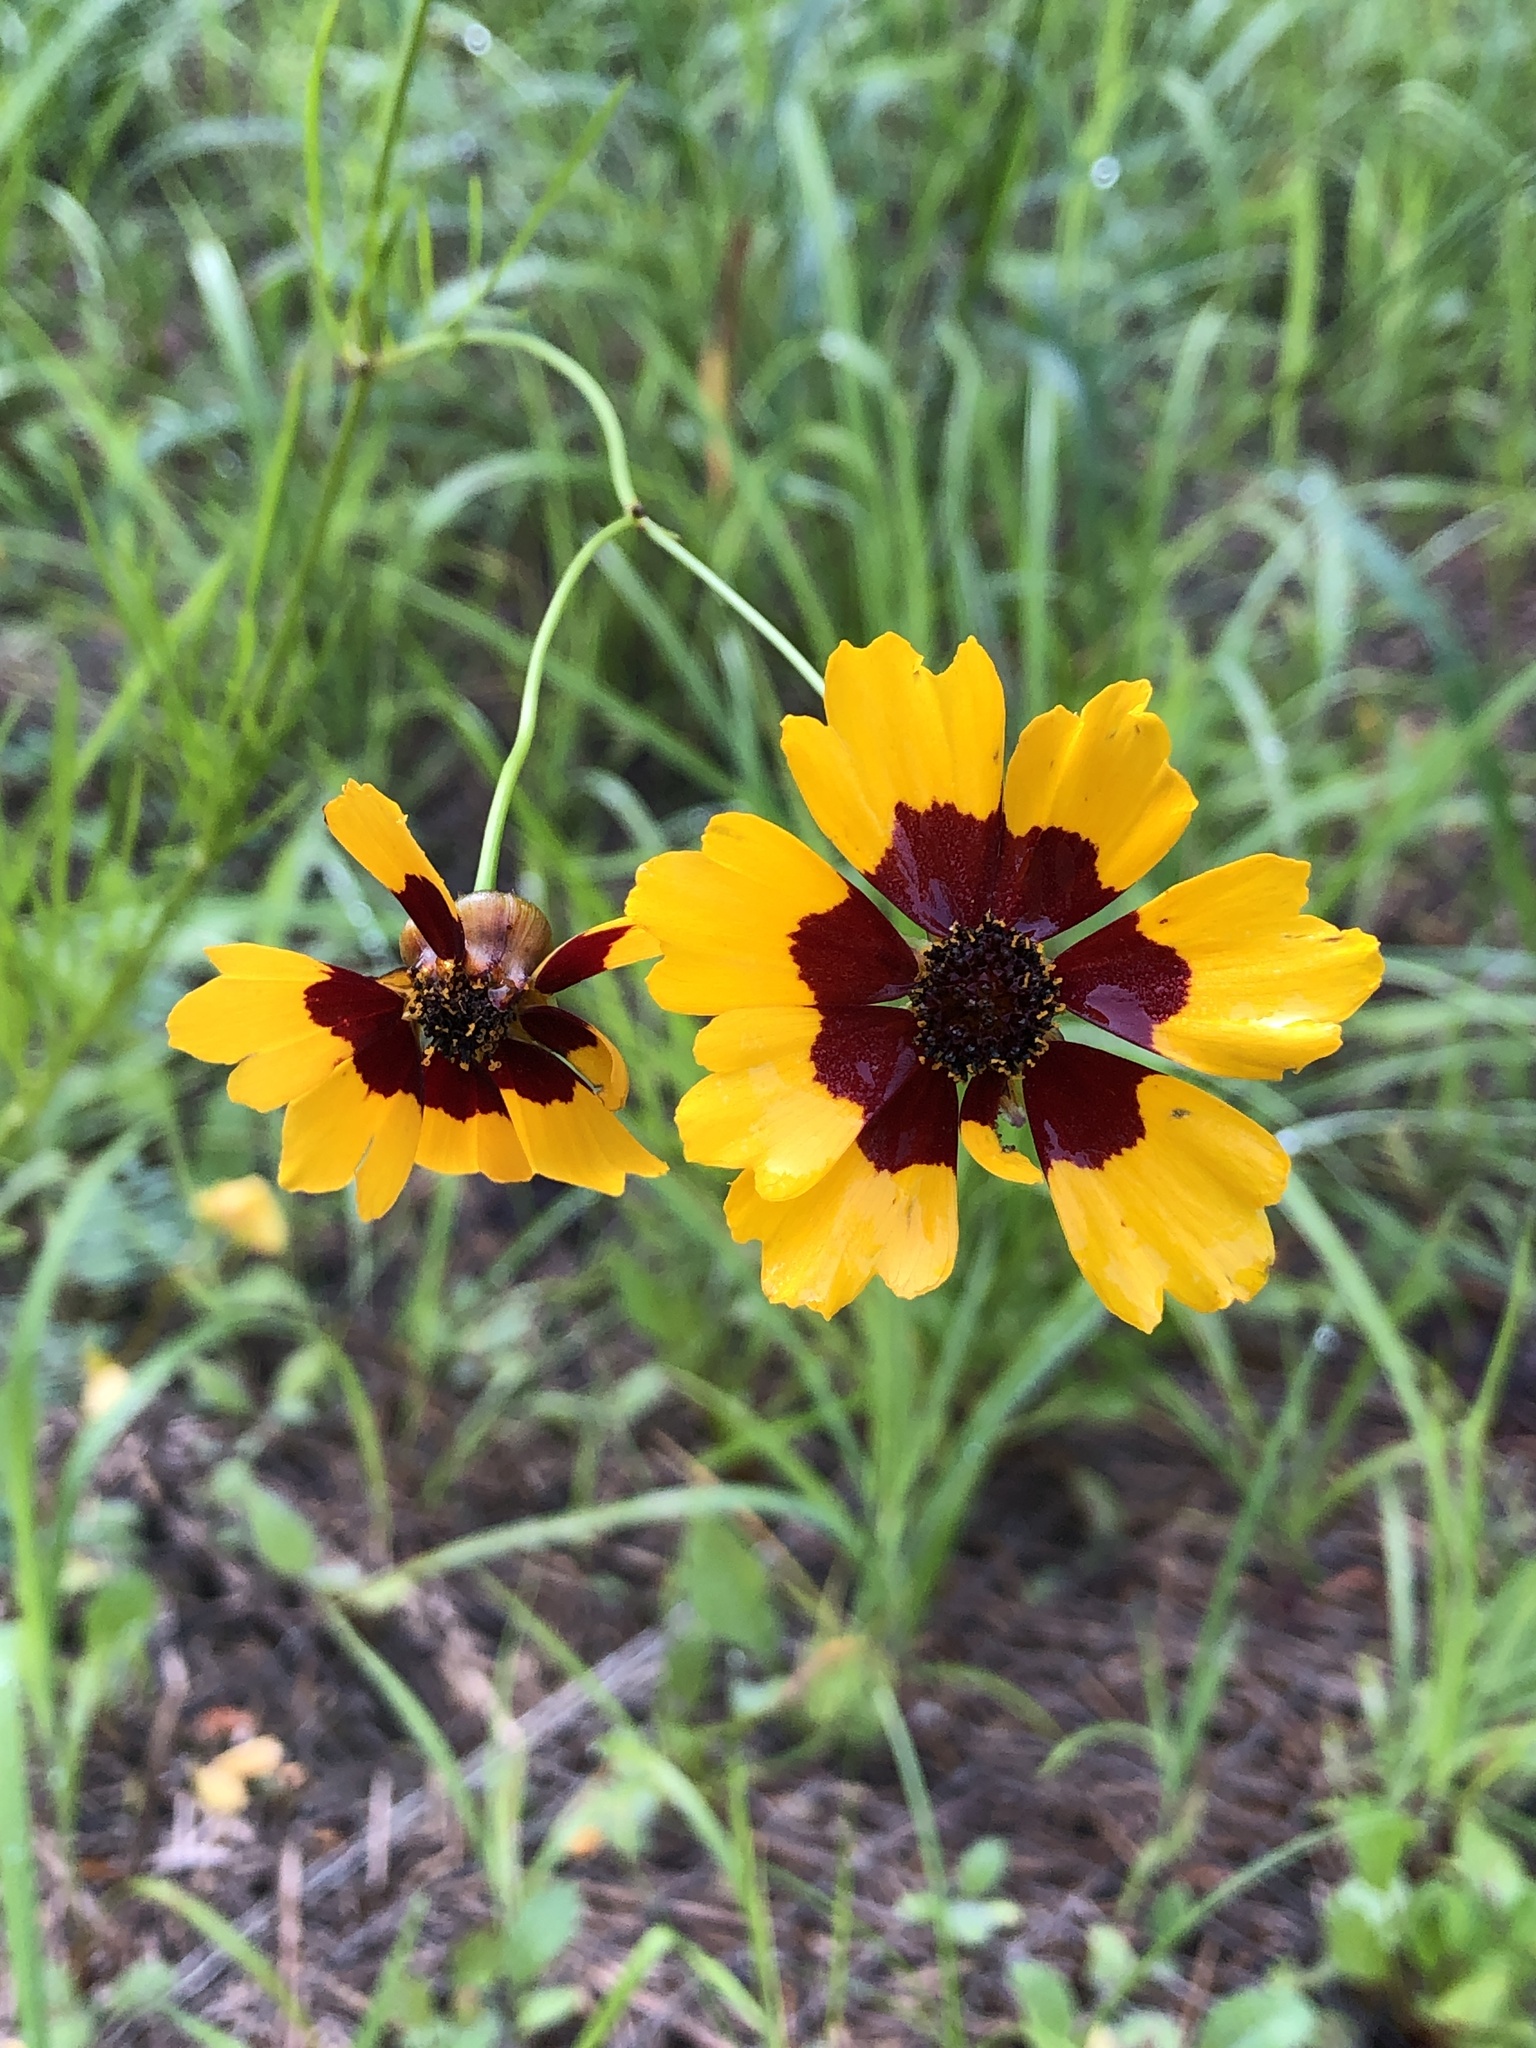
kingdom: Plantae
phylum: Tracheophyta
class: Magnoliopsida
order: Asterales
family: Asteraceae
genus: Coreopsis
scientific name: Coreopsis tinctoria
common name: Garden tickseed
